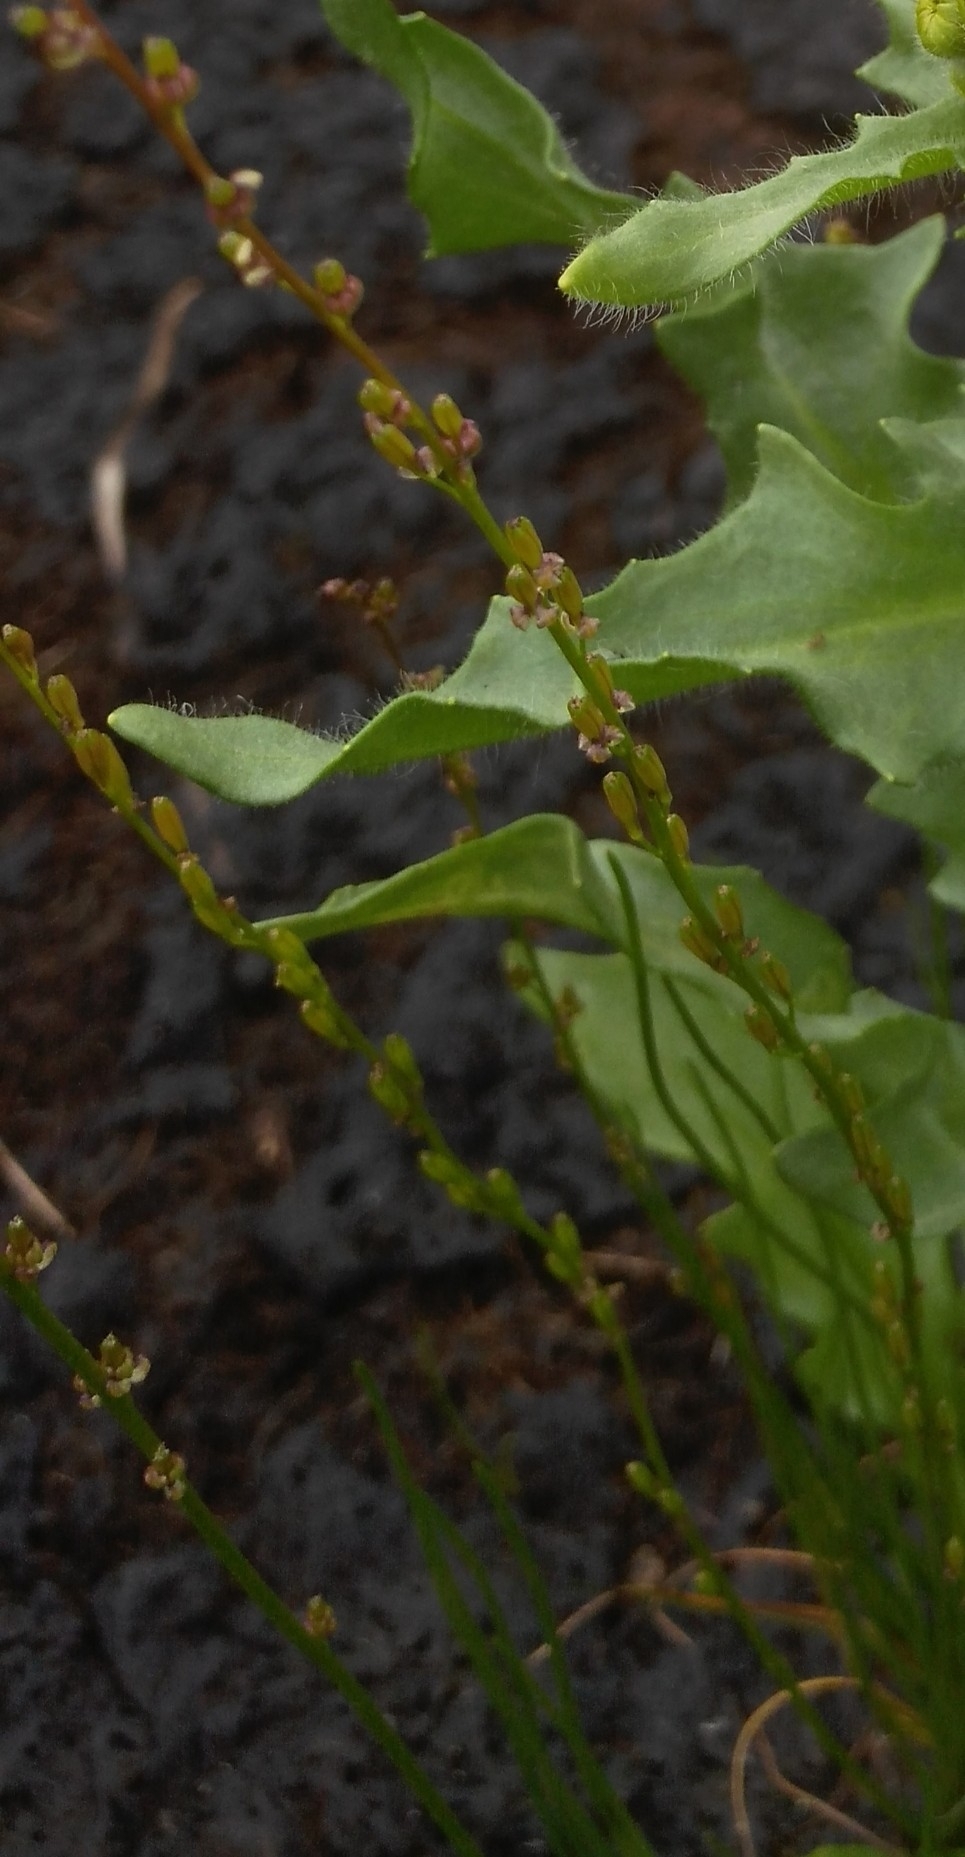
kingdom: Plantae
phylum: Tracheophyta
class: Liliopsida
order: Alismatales
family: Juncaginaceae
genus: Triglochin
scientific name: Triglochin palustris
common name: Marsh arrowgrass
